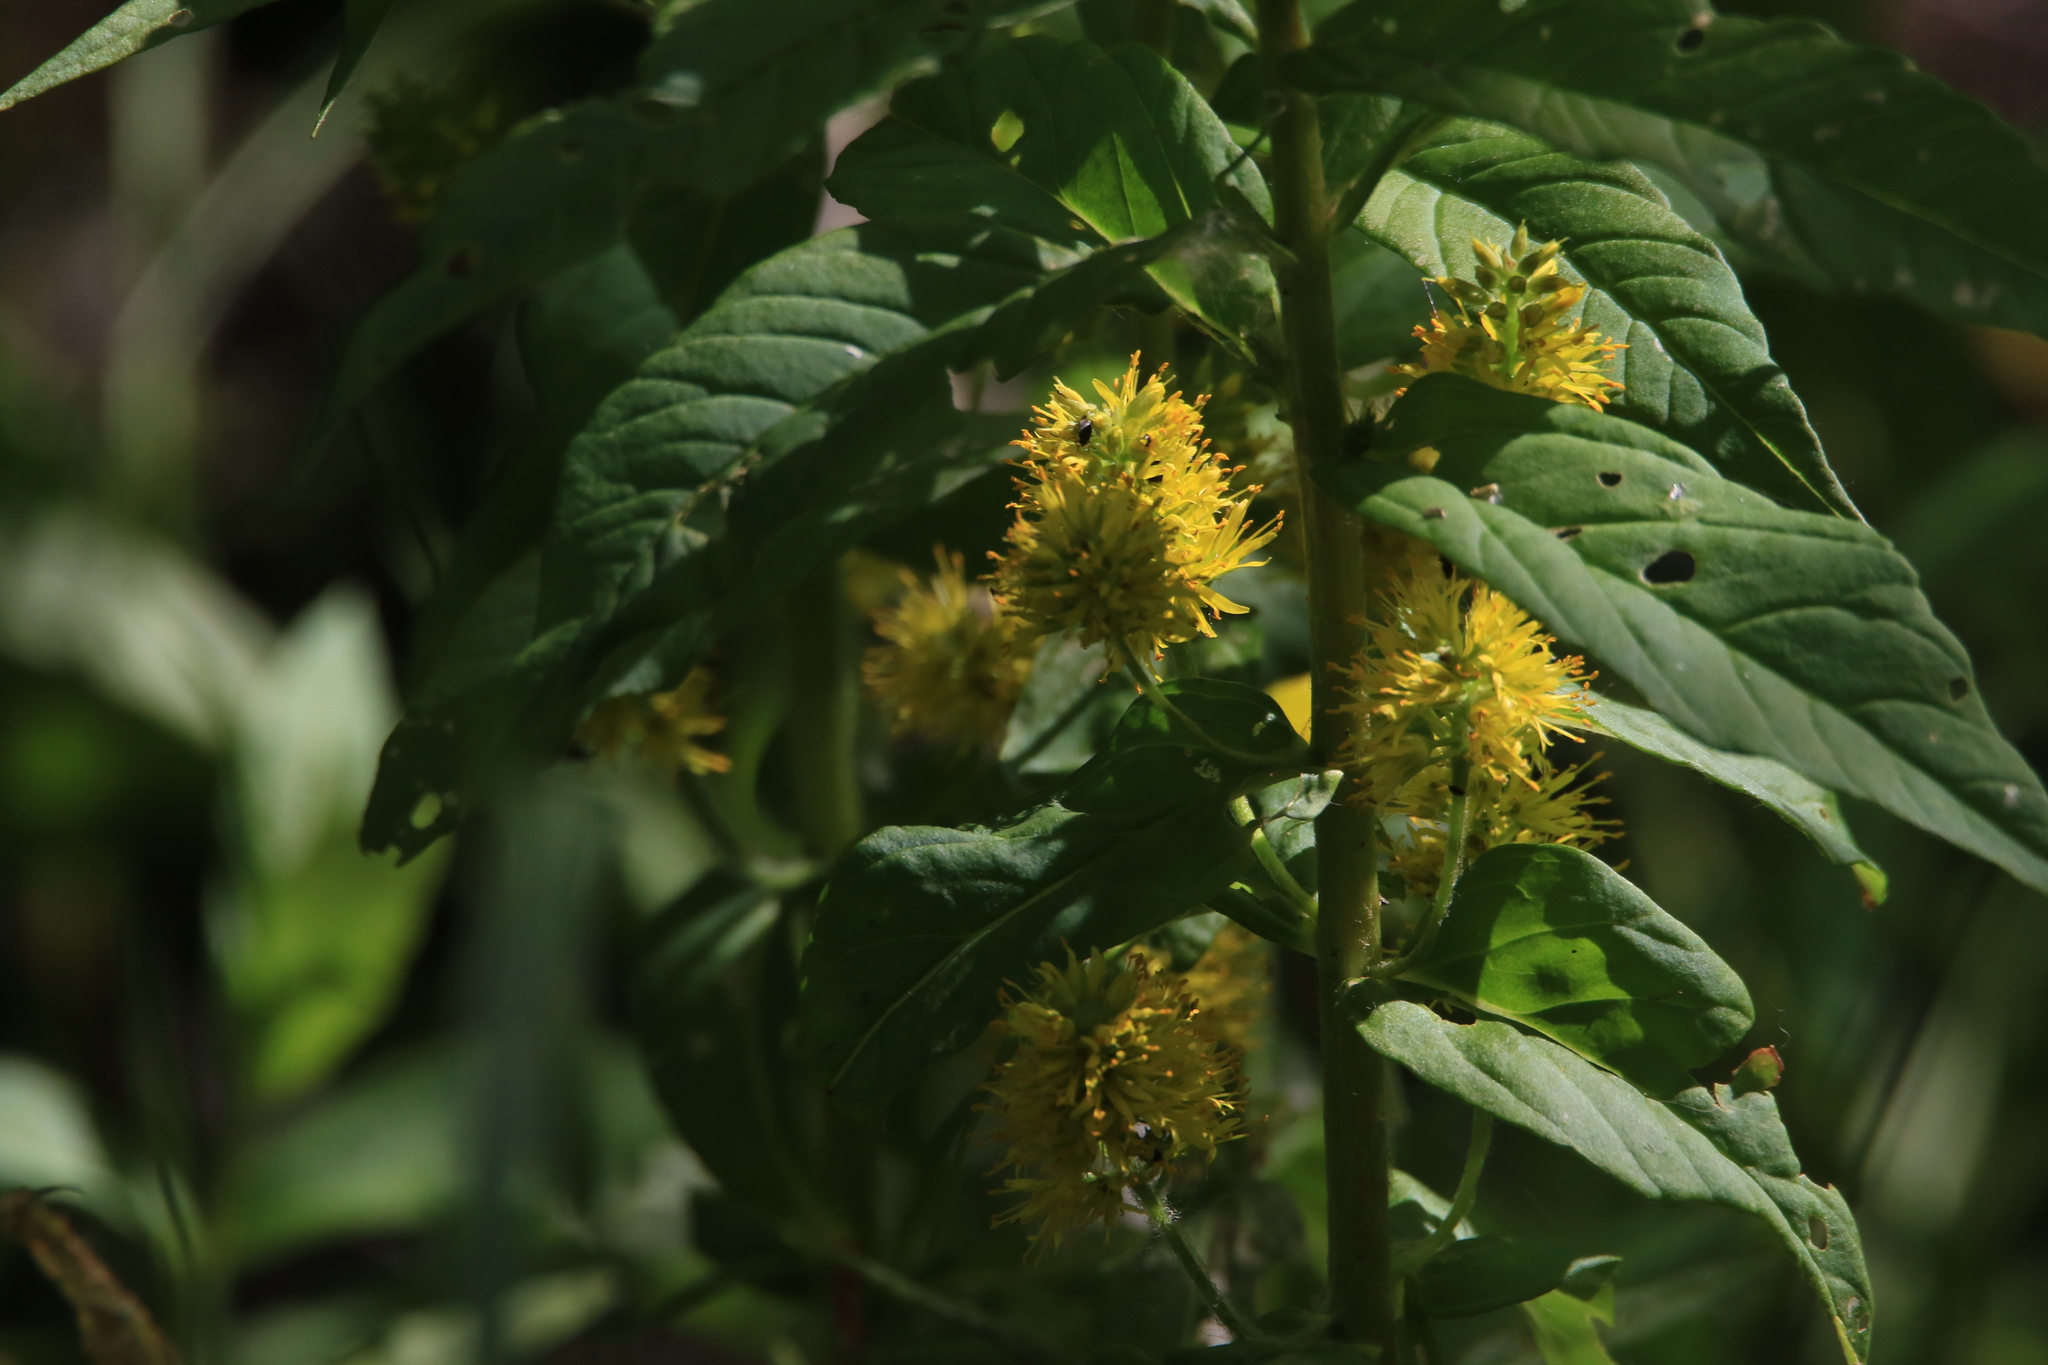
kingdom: Plantae
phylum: Tracheophyta
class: Magnoliopsida
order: Ericales
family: Primulaceae
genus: Lysimachia
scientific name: Lysimachia thyrsiflora
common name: Tufted loosestrife
